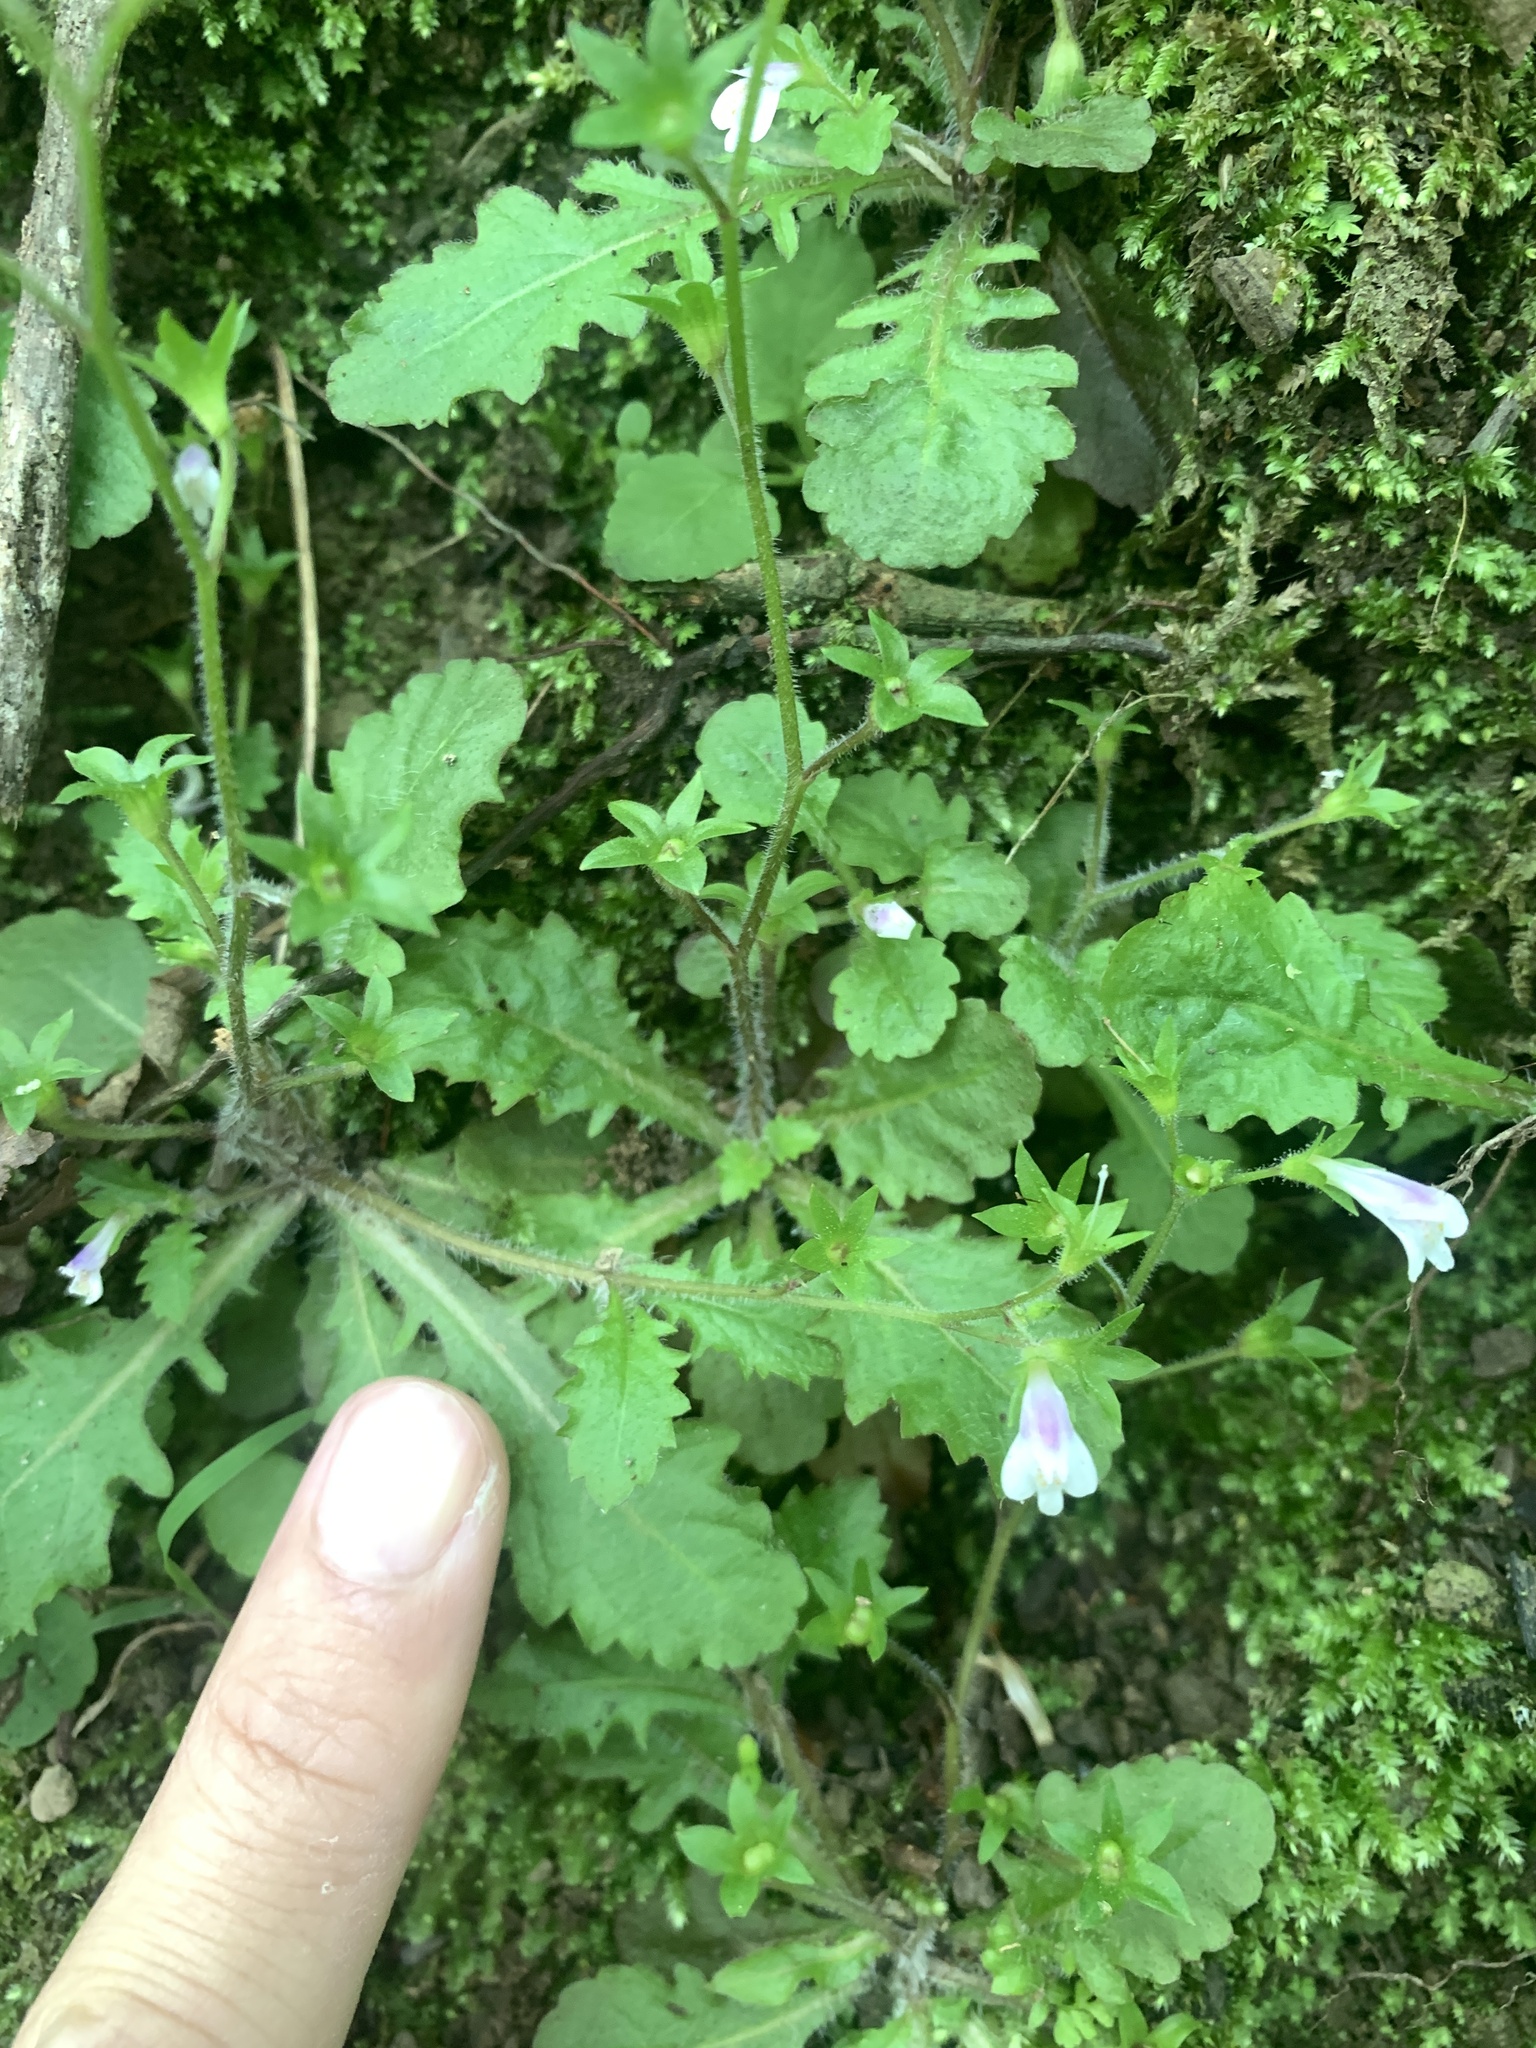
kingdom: Plantae
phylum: Tracheophyta
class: Magnoliopsida
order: Lamiales
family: Mazaceae
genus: Mazus
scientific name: Mazus goodeniifolius
